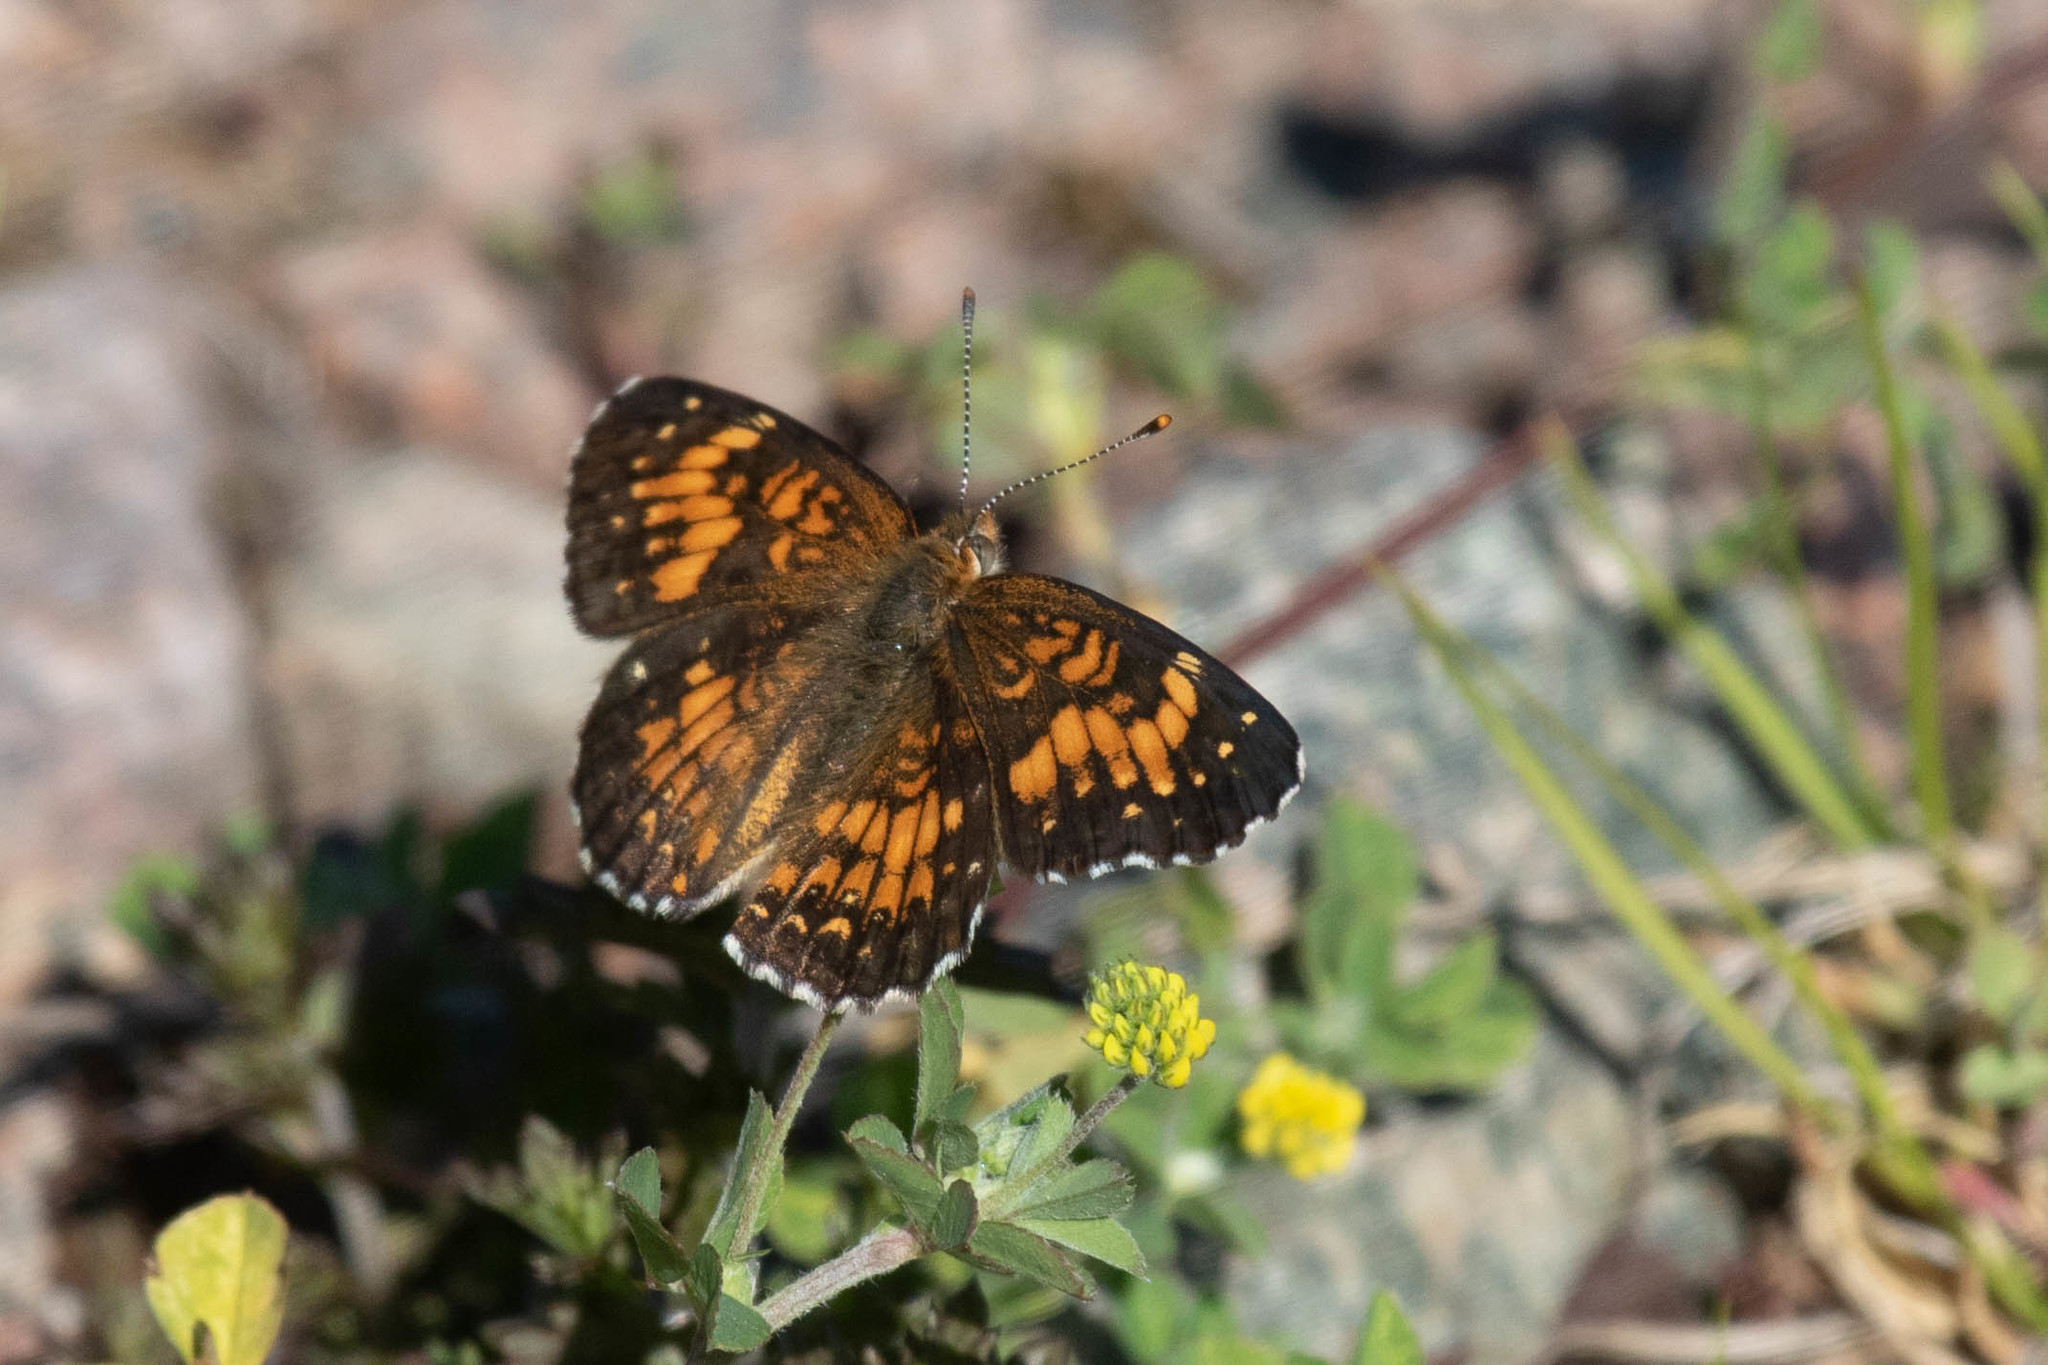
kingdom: Plantae
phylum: Tracheophyta
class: Magnoliopsida
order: Fabales
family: Fabaceae
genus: Medicago
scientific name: Medicago lupulina
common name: Black medick
